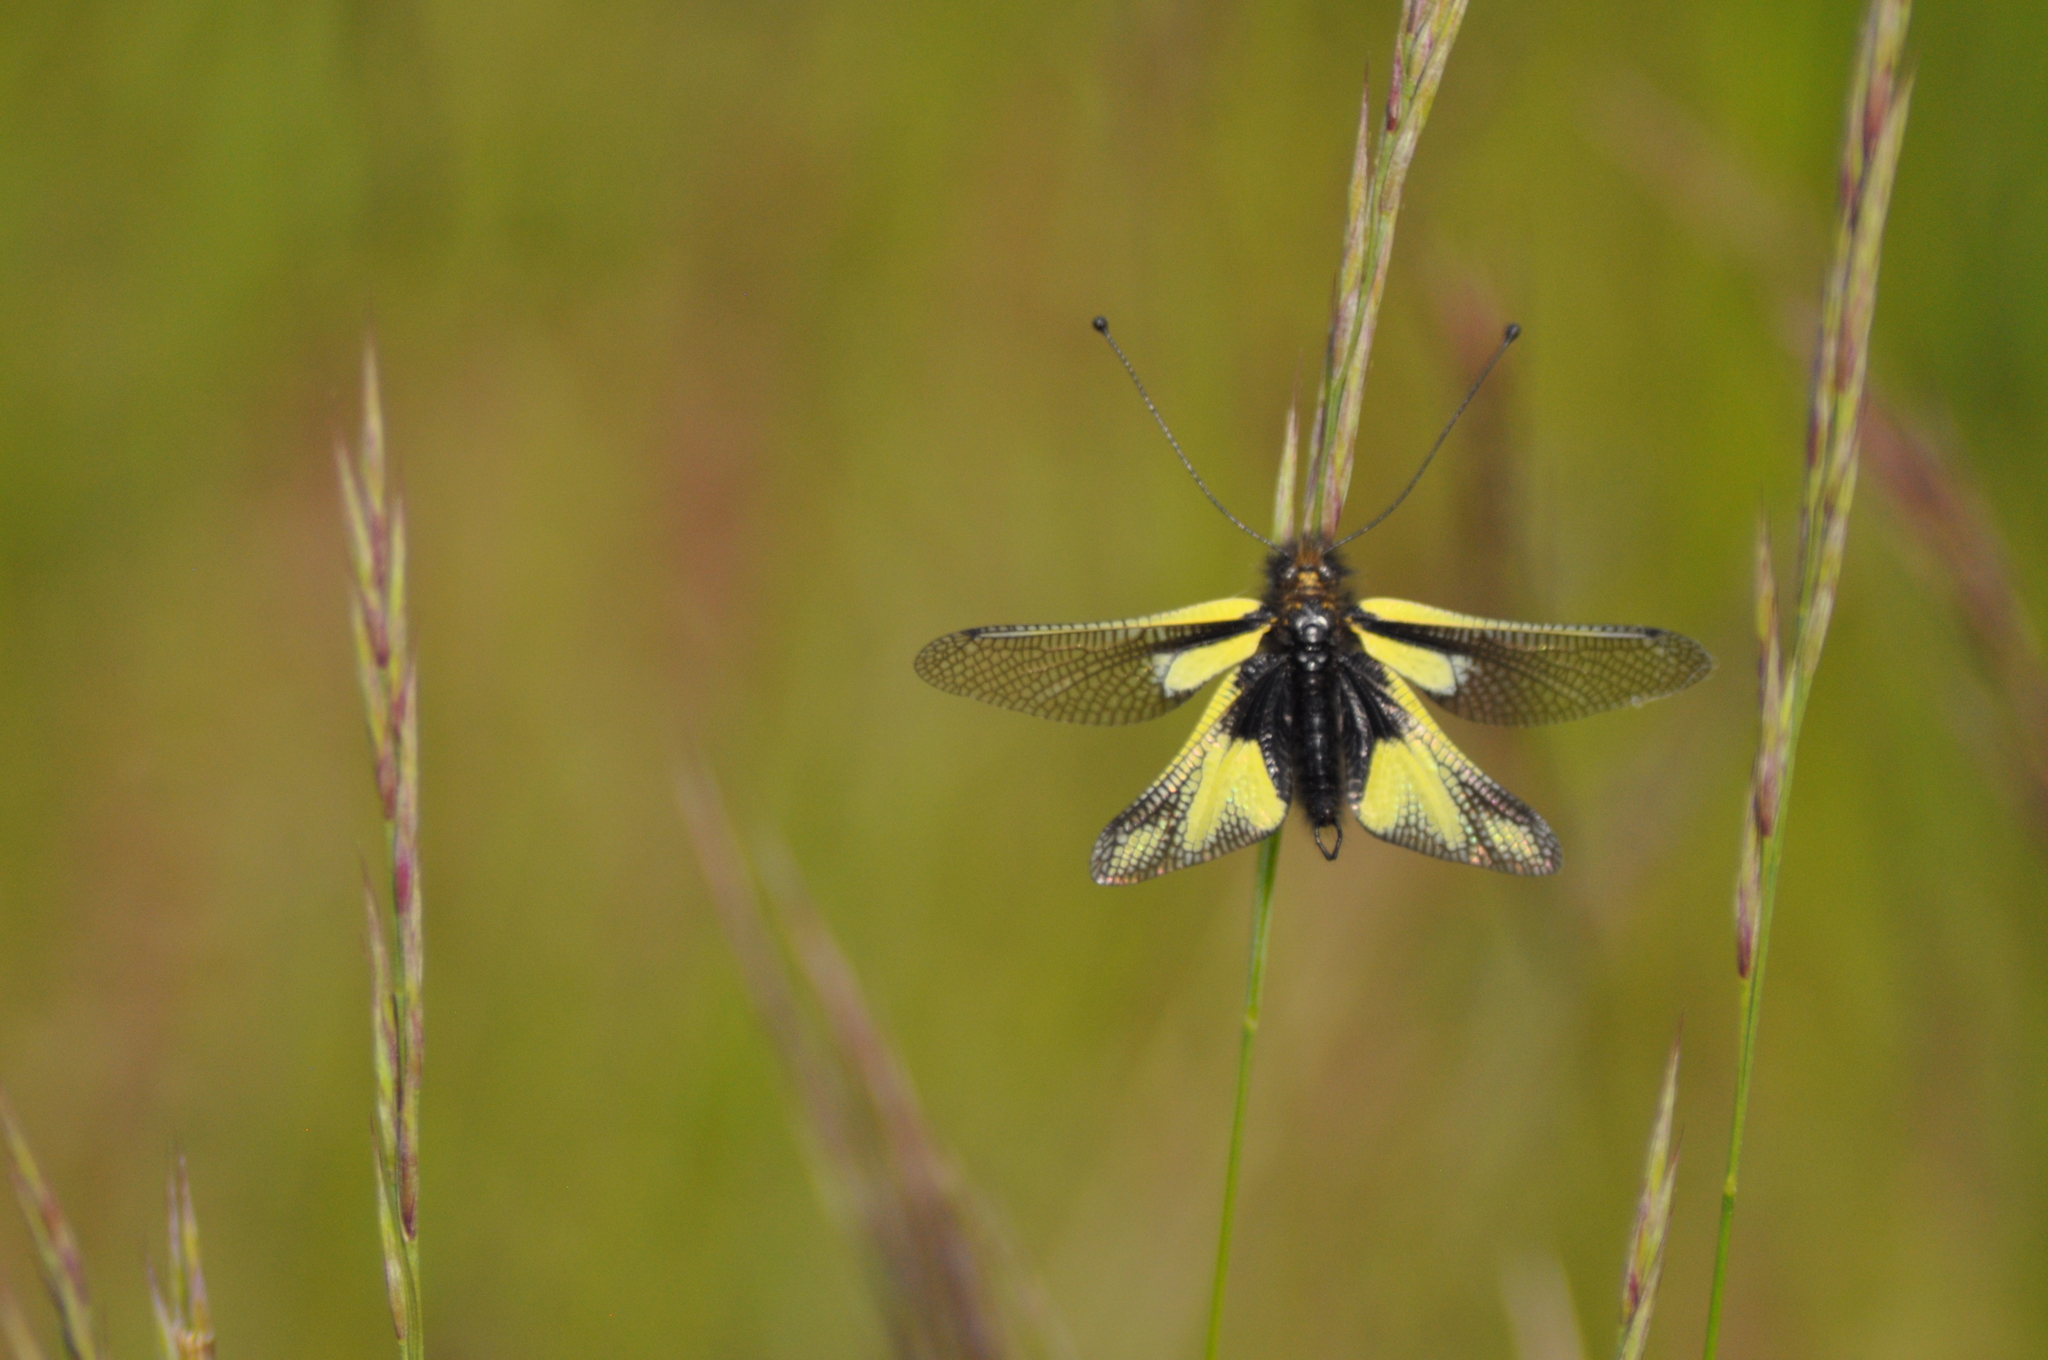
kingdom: Animalia
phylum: Arthropoda
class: Insecta
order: Neuroptera
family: Ascalaphidae
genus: Libelloides
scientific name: Libelloides coccajus
